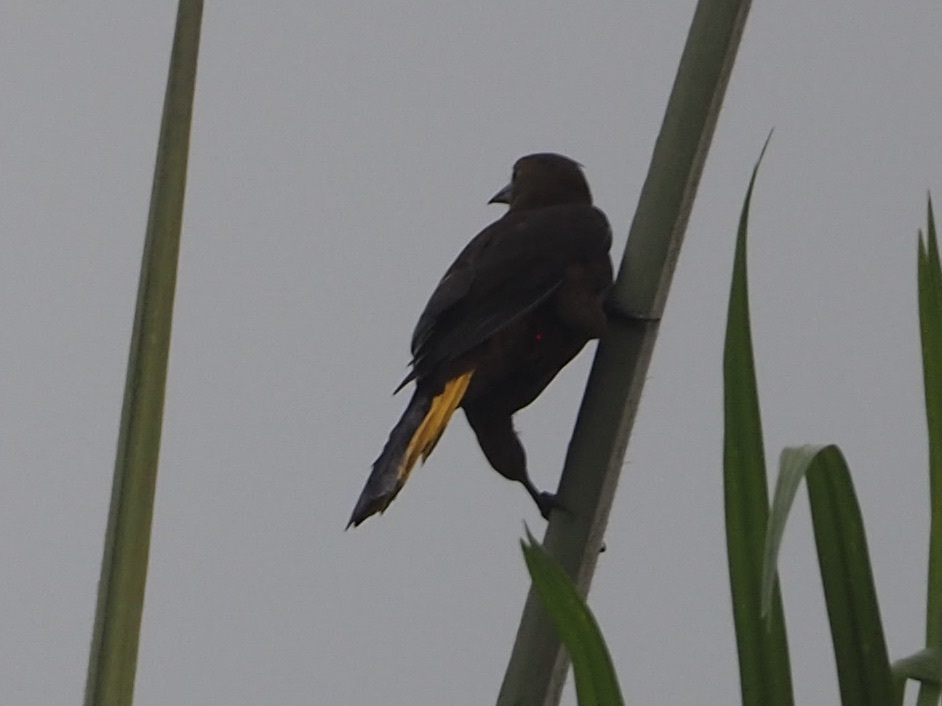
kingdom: Animalia
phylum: Chordata
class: Aves
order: Passeriformes
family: Icteridae
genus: Psarocolius
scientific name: Psarocolius angustifrons
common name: Russet-backed oropendola
